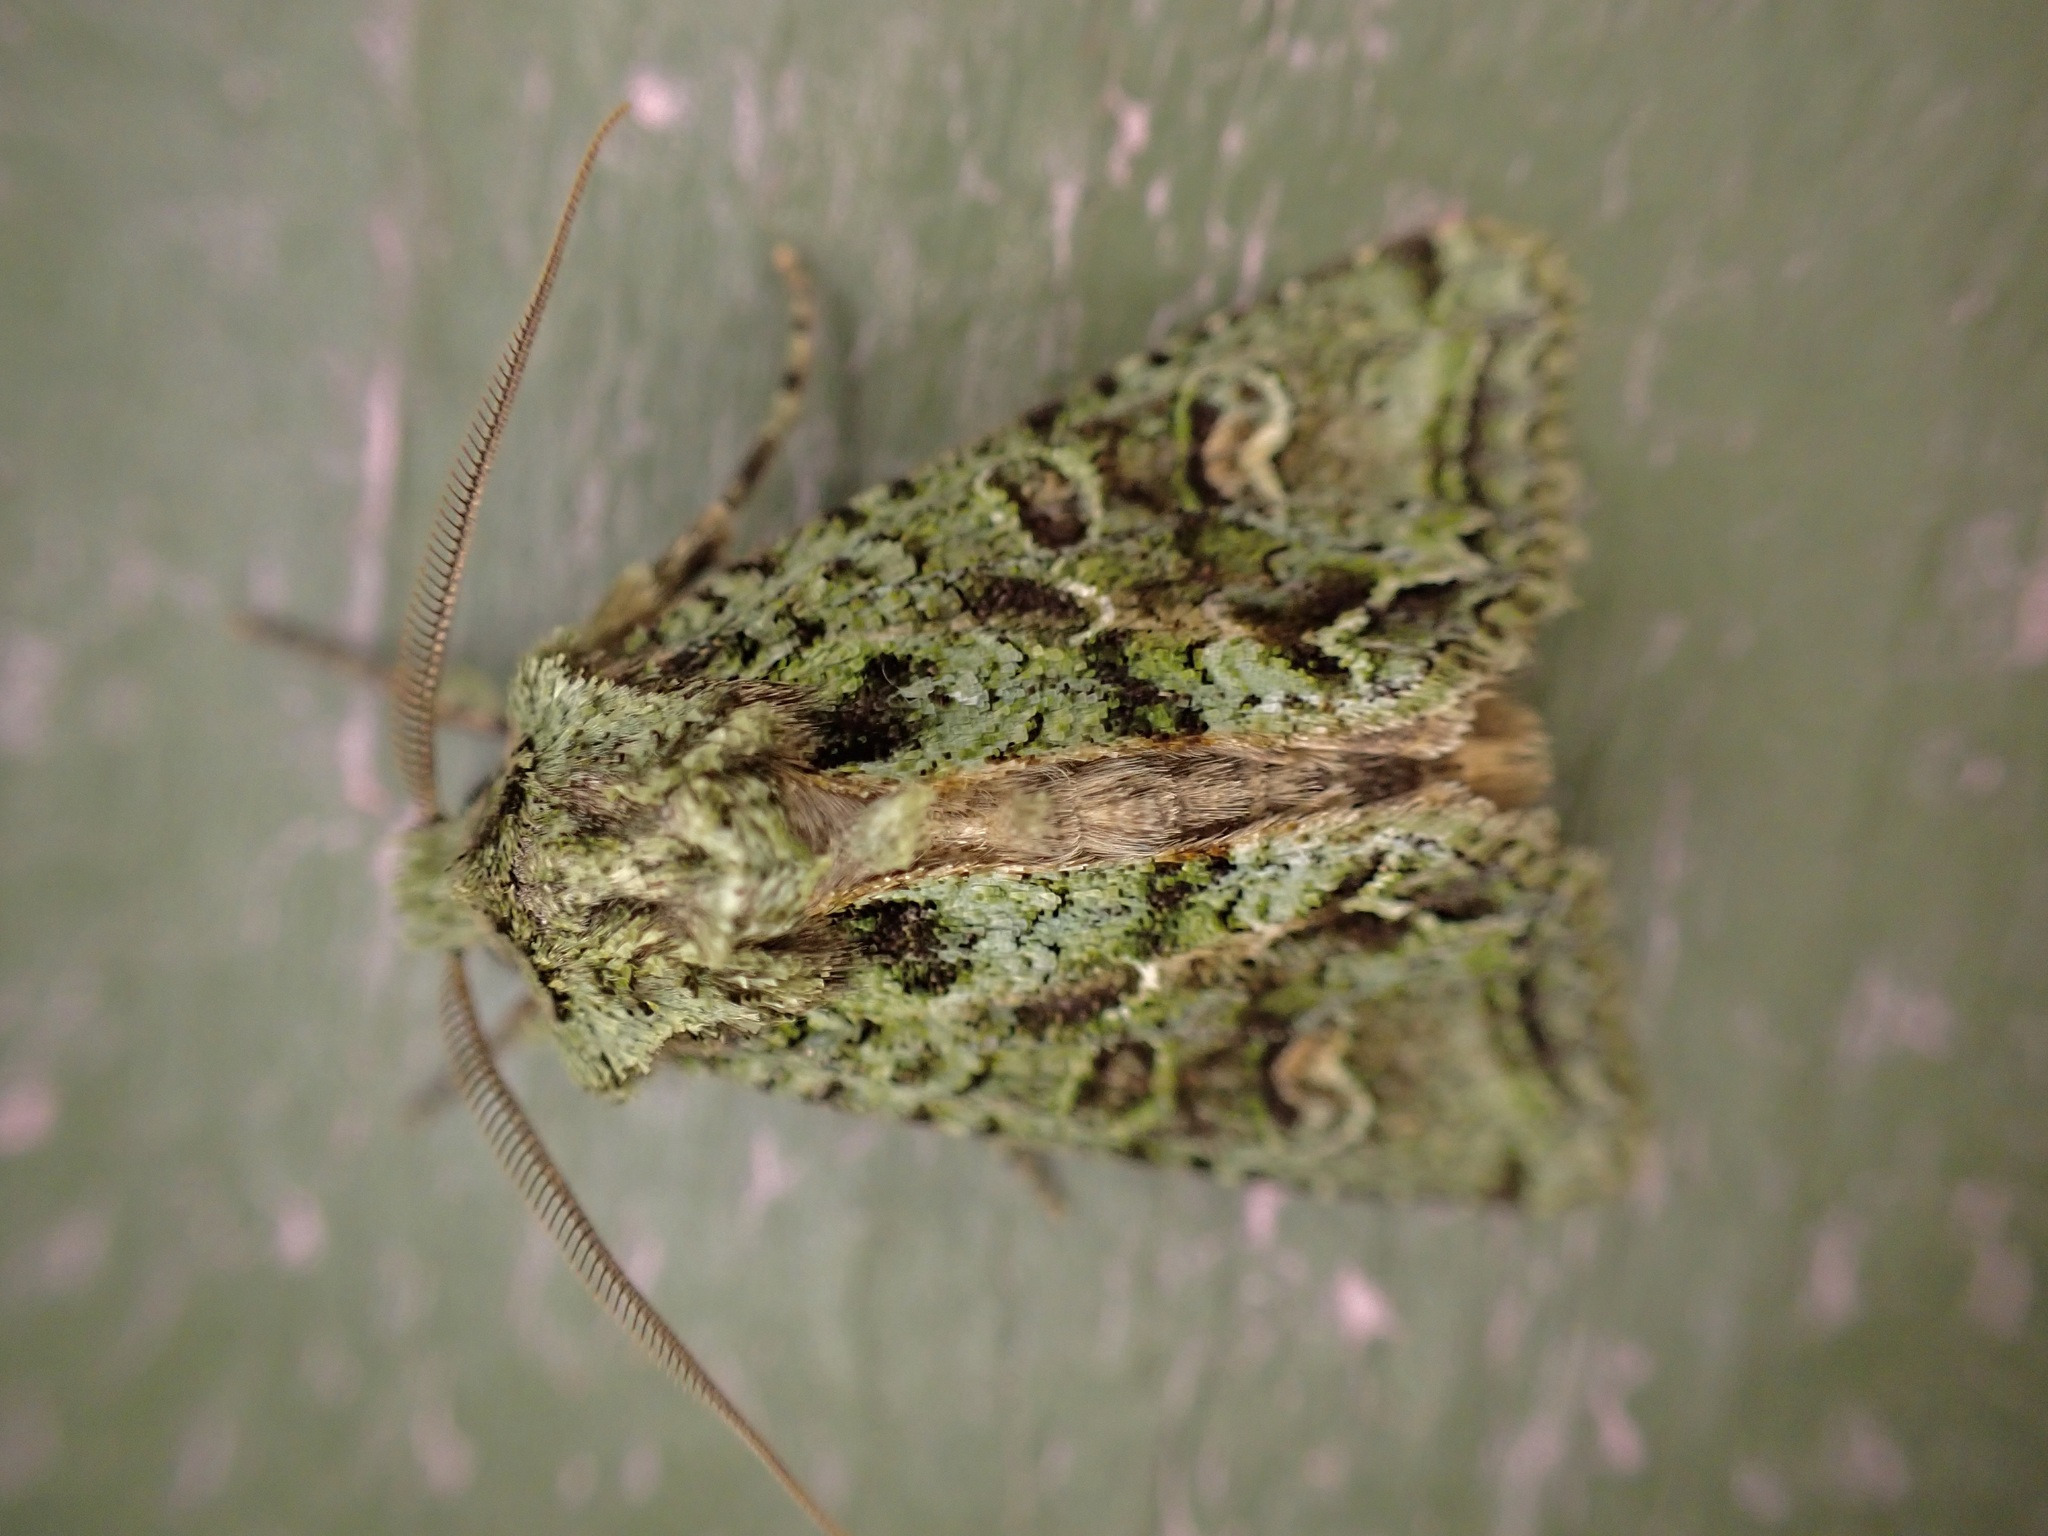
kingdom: Animalia
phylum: Arthropoda
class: Insecta
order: Lepidoptera
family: Noctuidae
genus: Ichneutica
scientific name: Ichneutica
